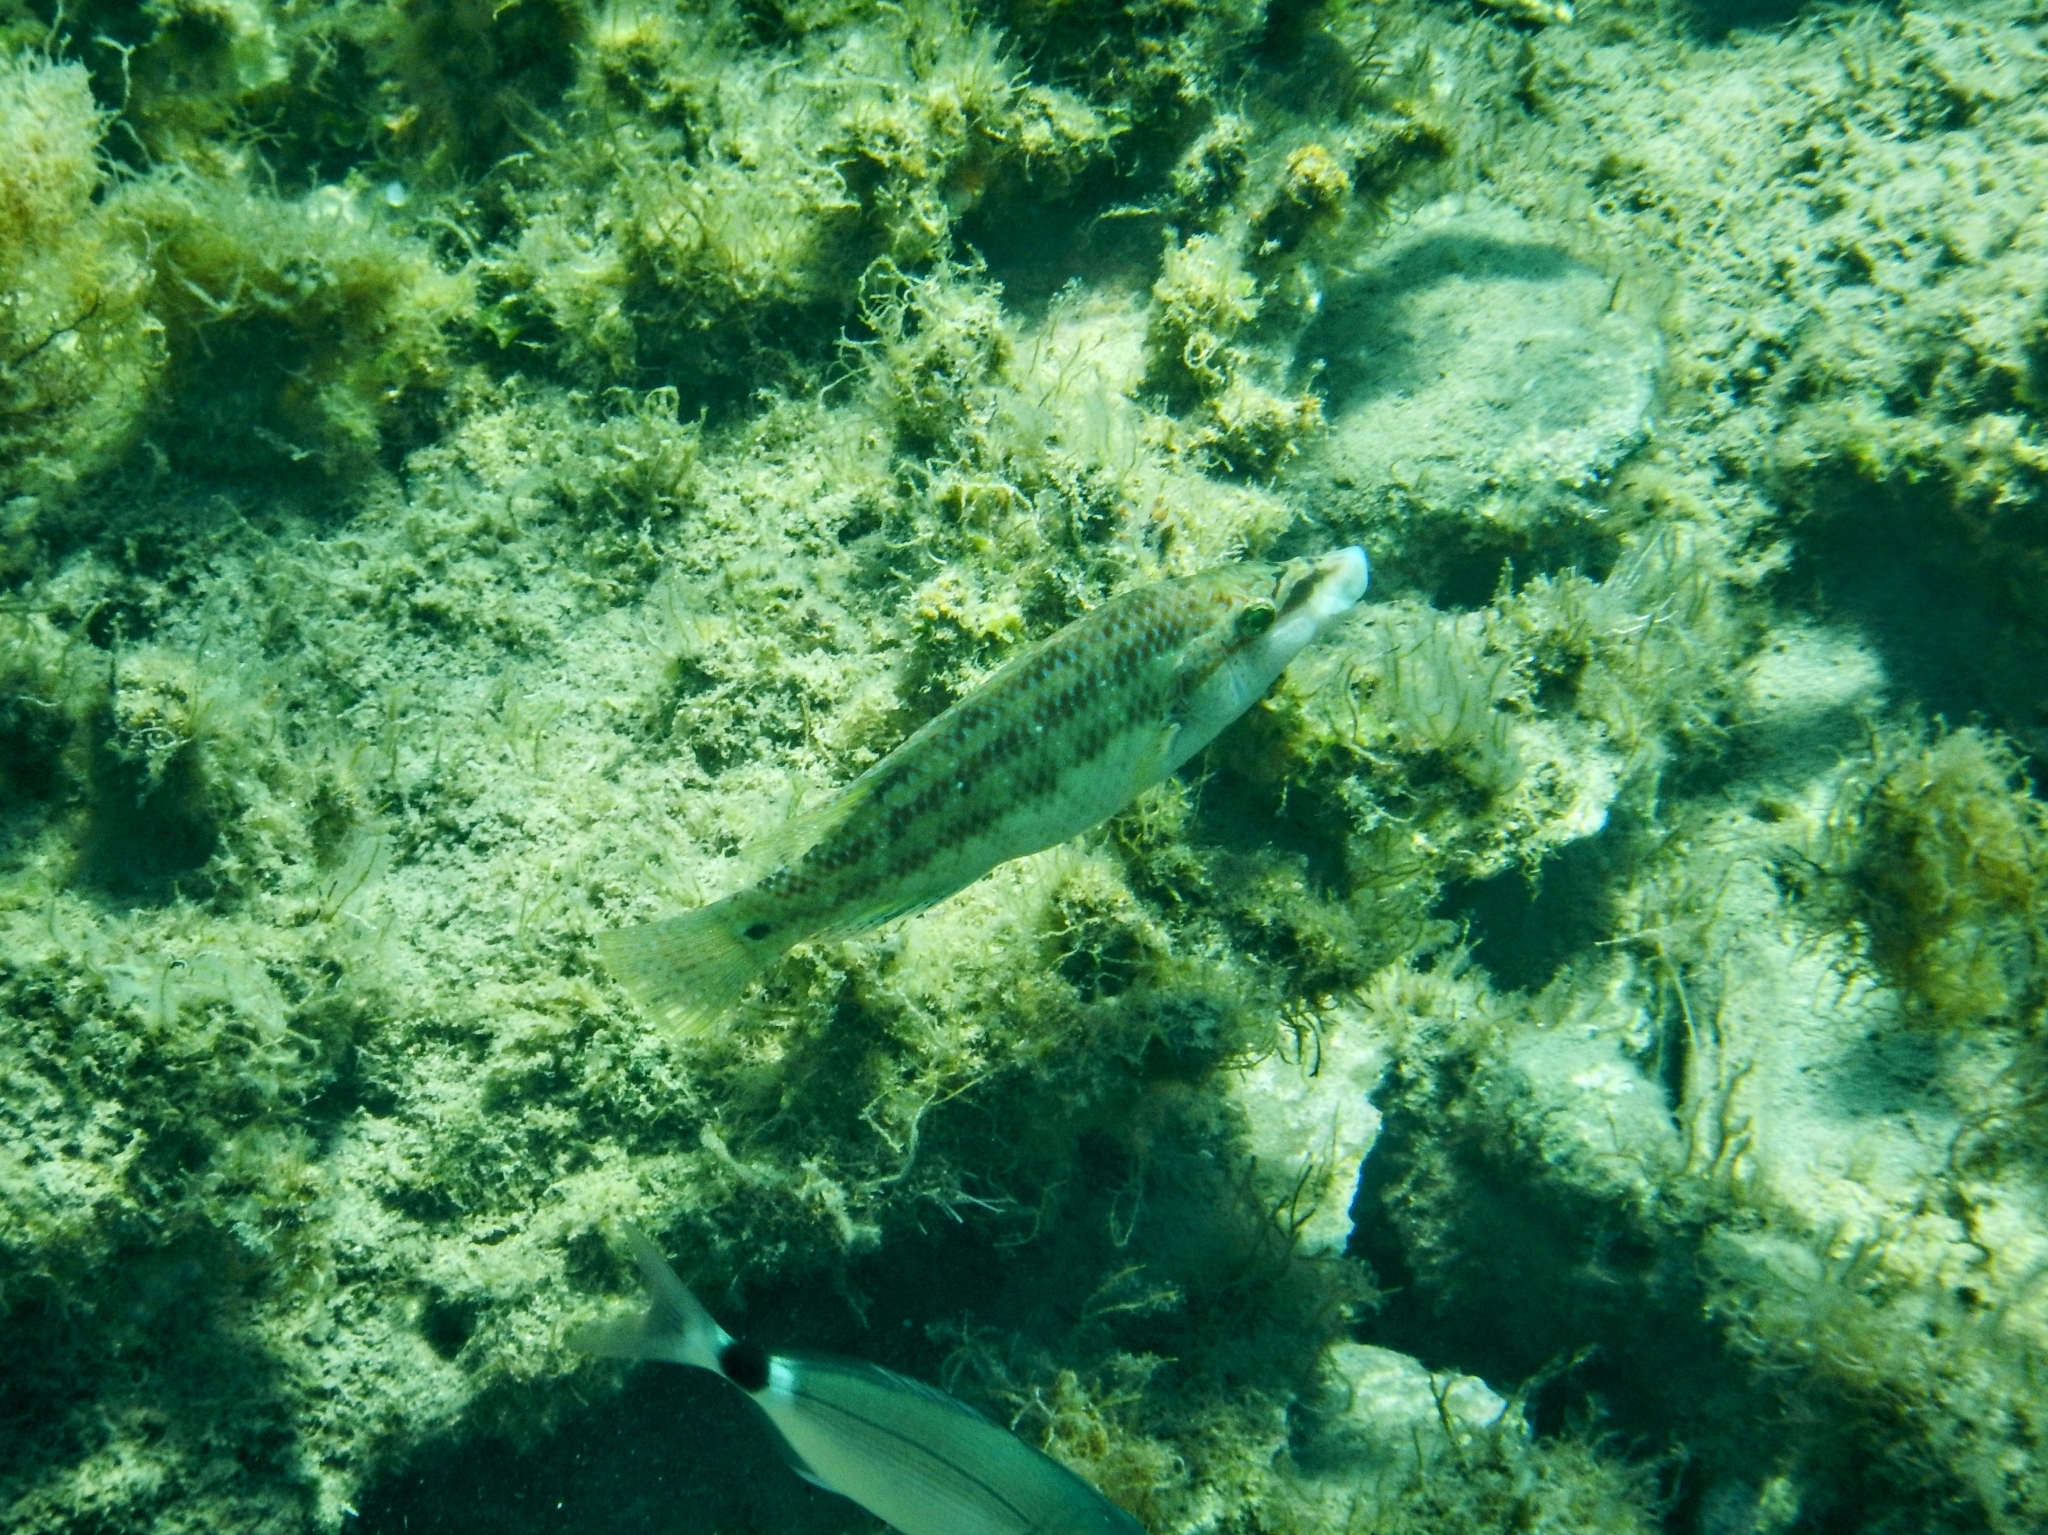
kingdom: Animalia
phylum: Chordata
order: Perciformes
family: Labridae
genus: Symphodus
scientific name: Symphodus tinca
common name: Peacock wrasse
